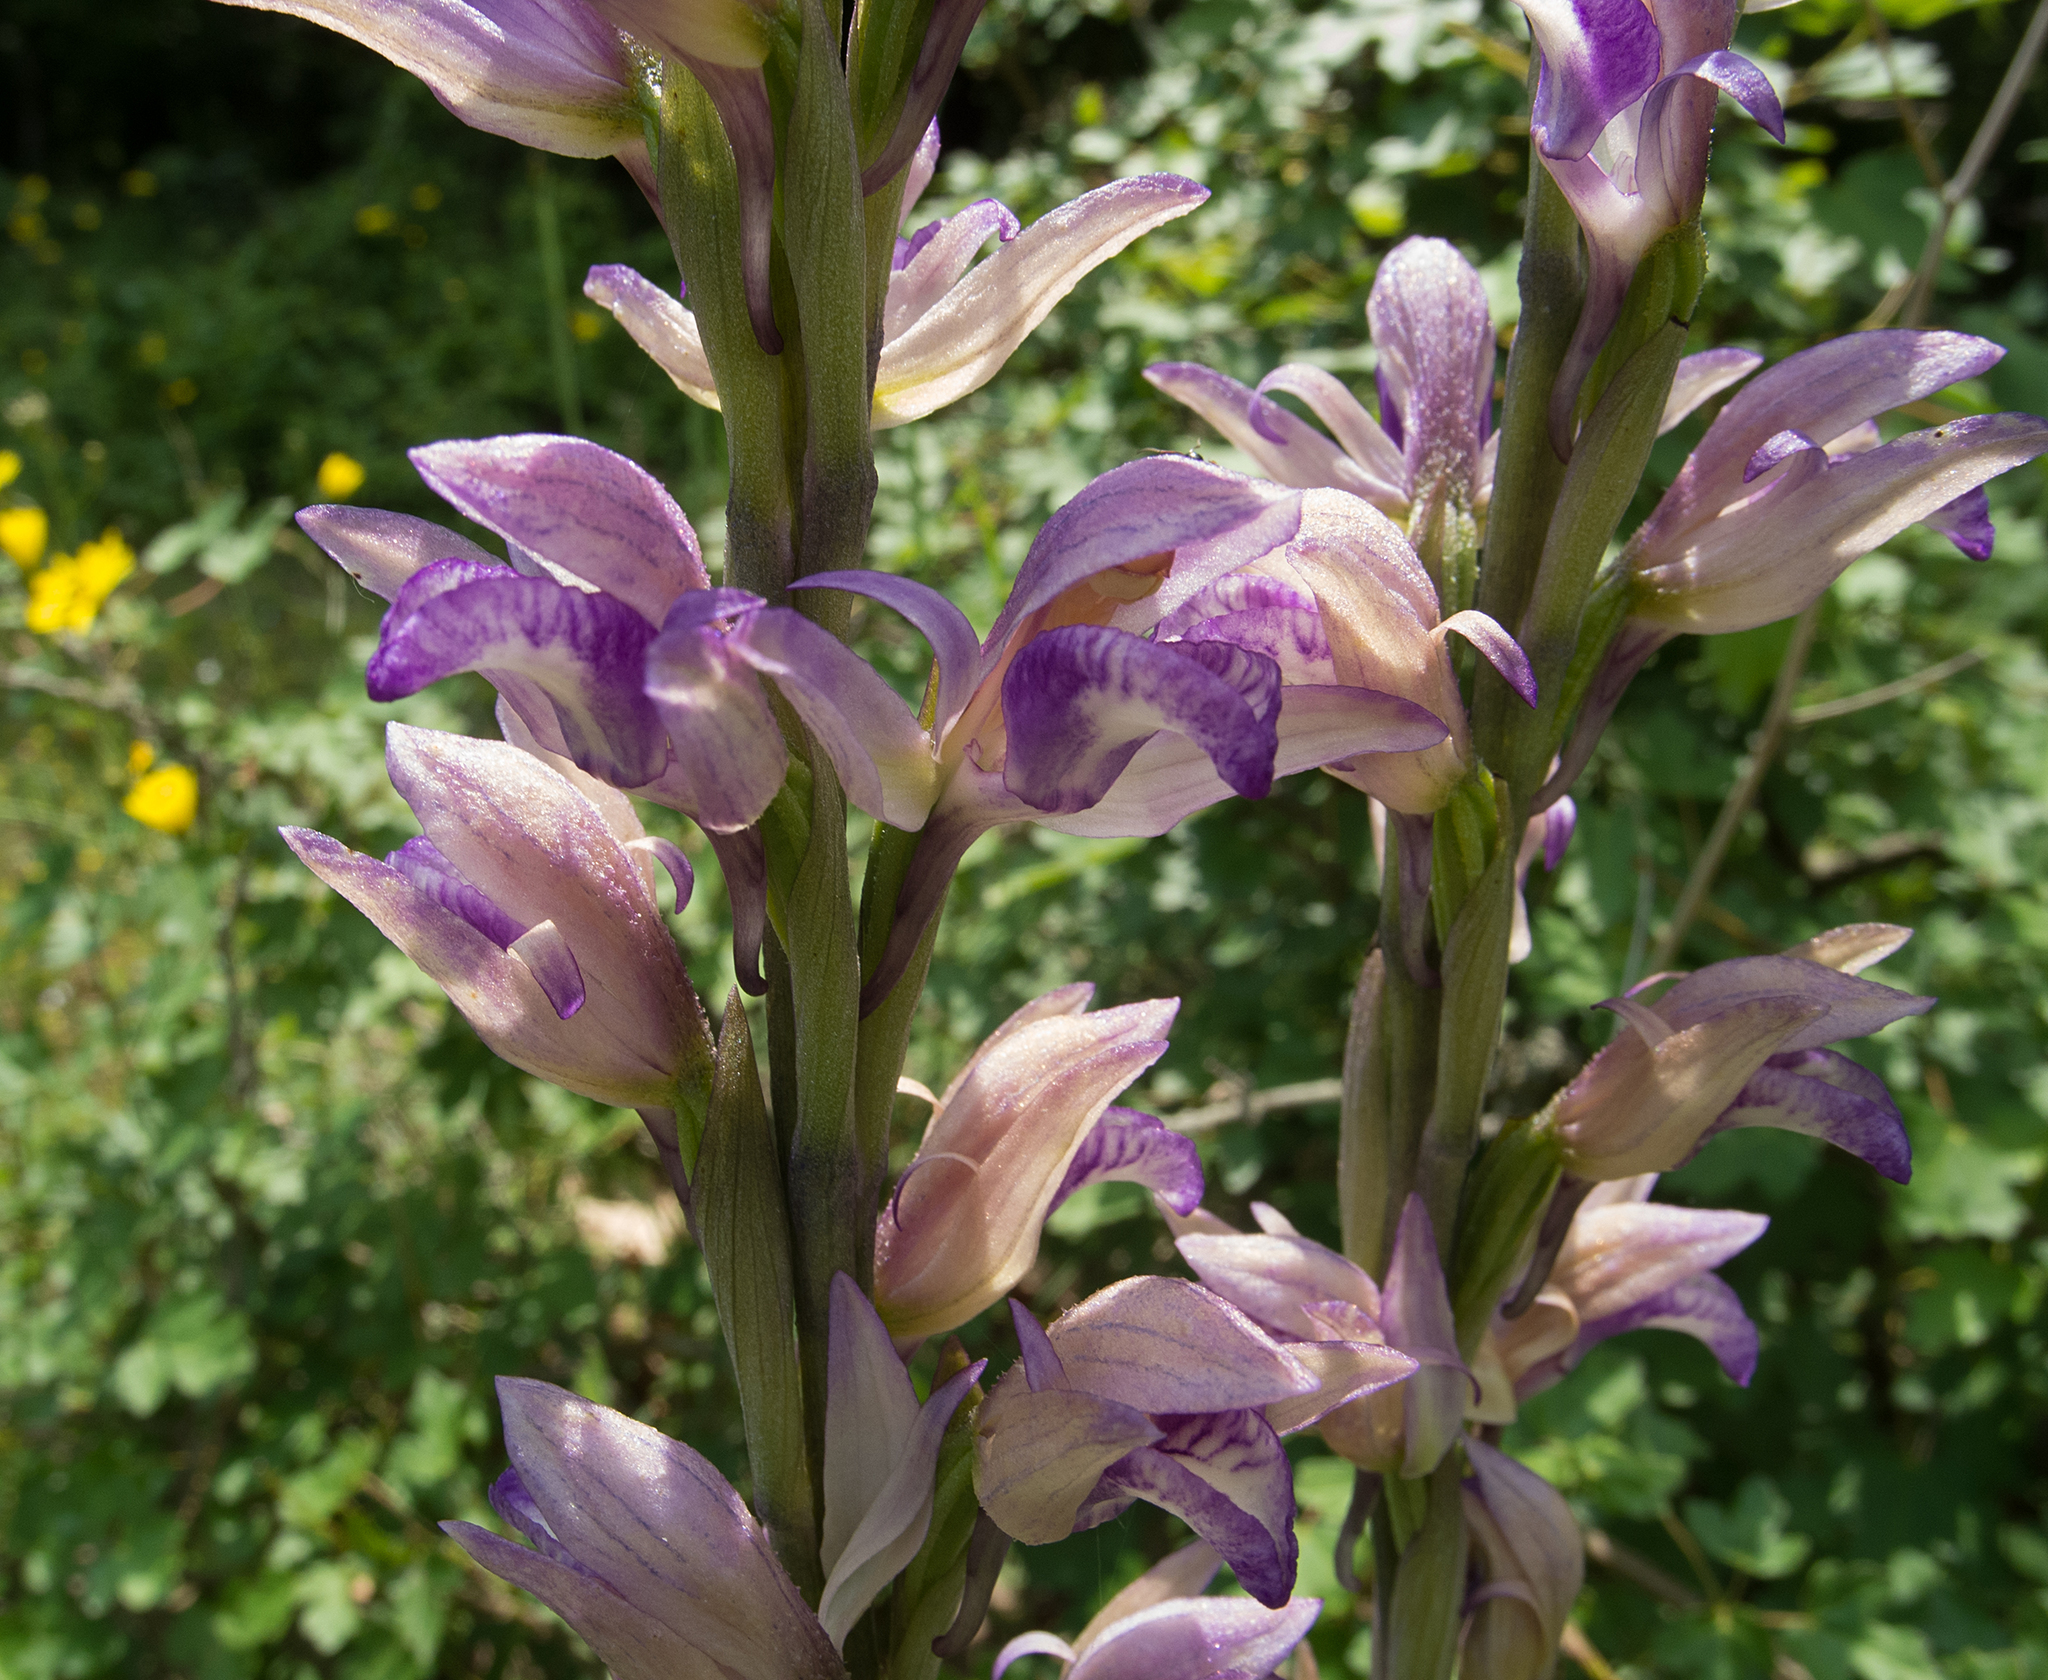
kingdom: Plantae
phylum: Tracheophyta
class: Liliopsida
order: Asparagales
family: Orchidaceae
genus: Limodorum
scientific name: Limodorum abortivum
